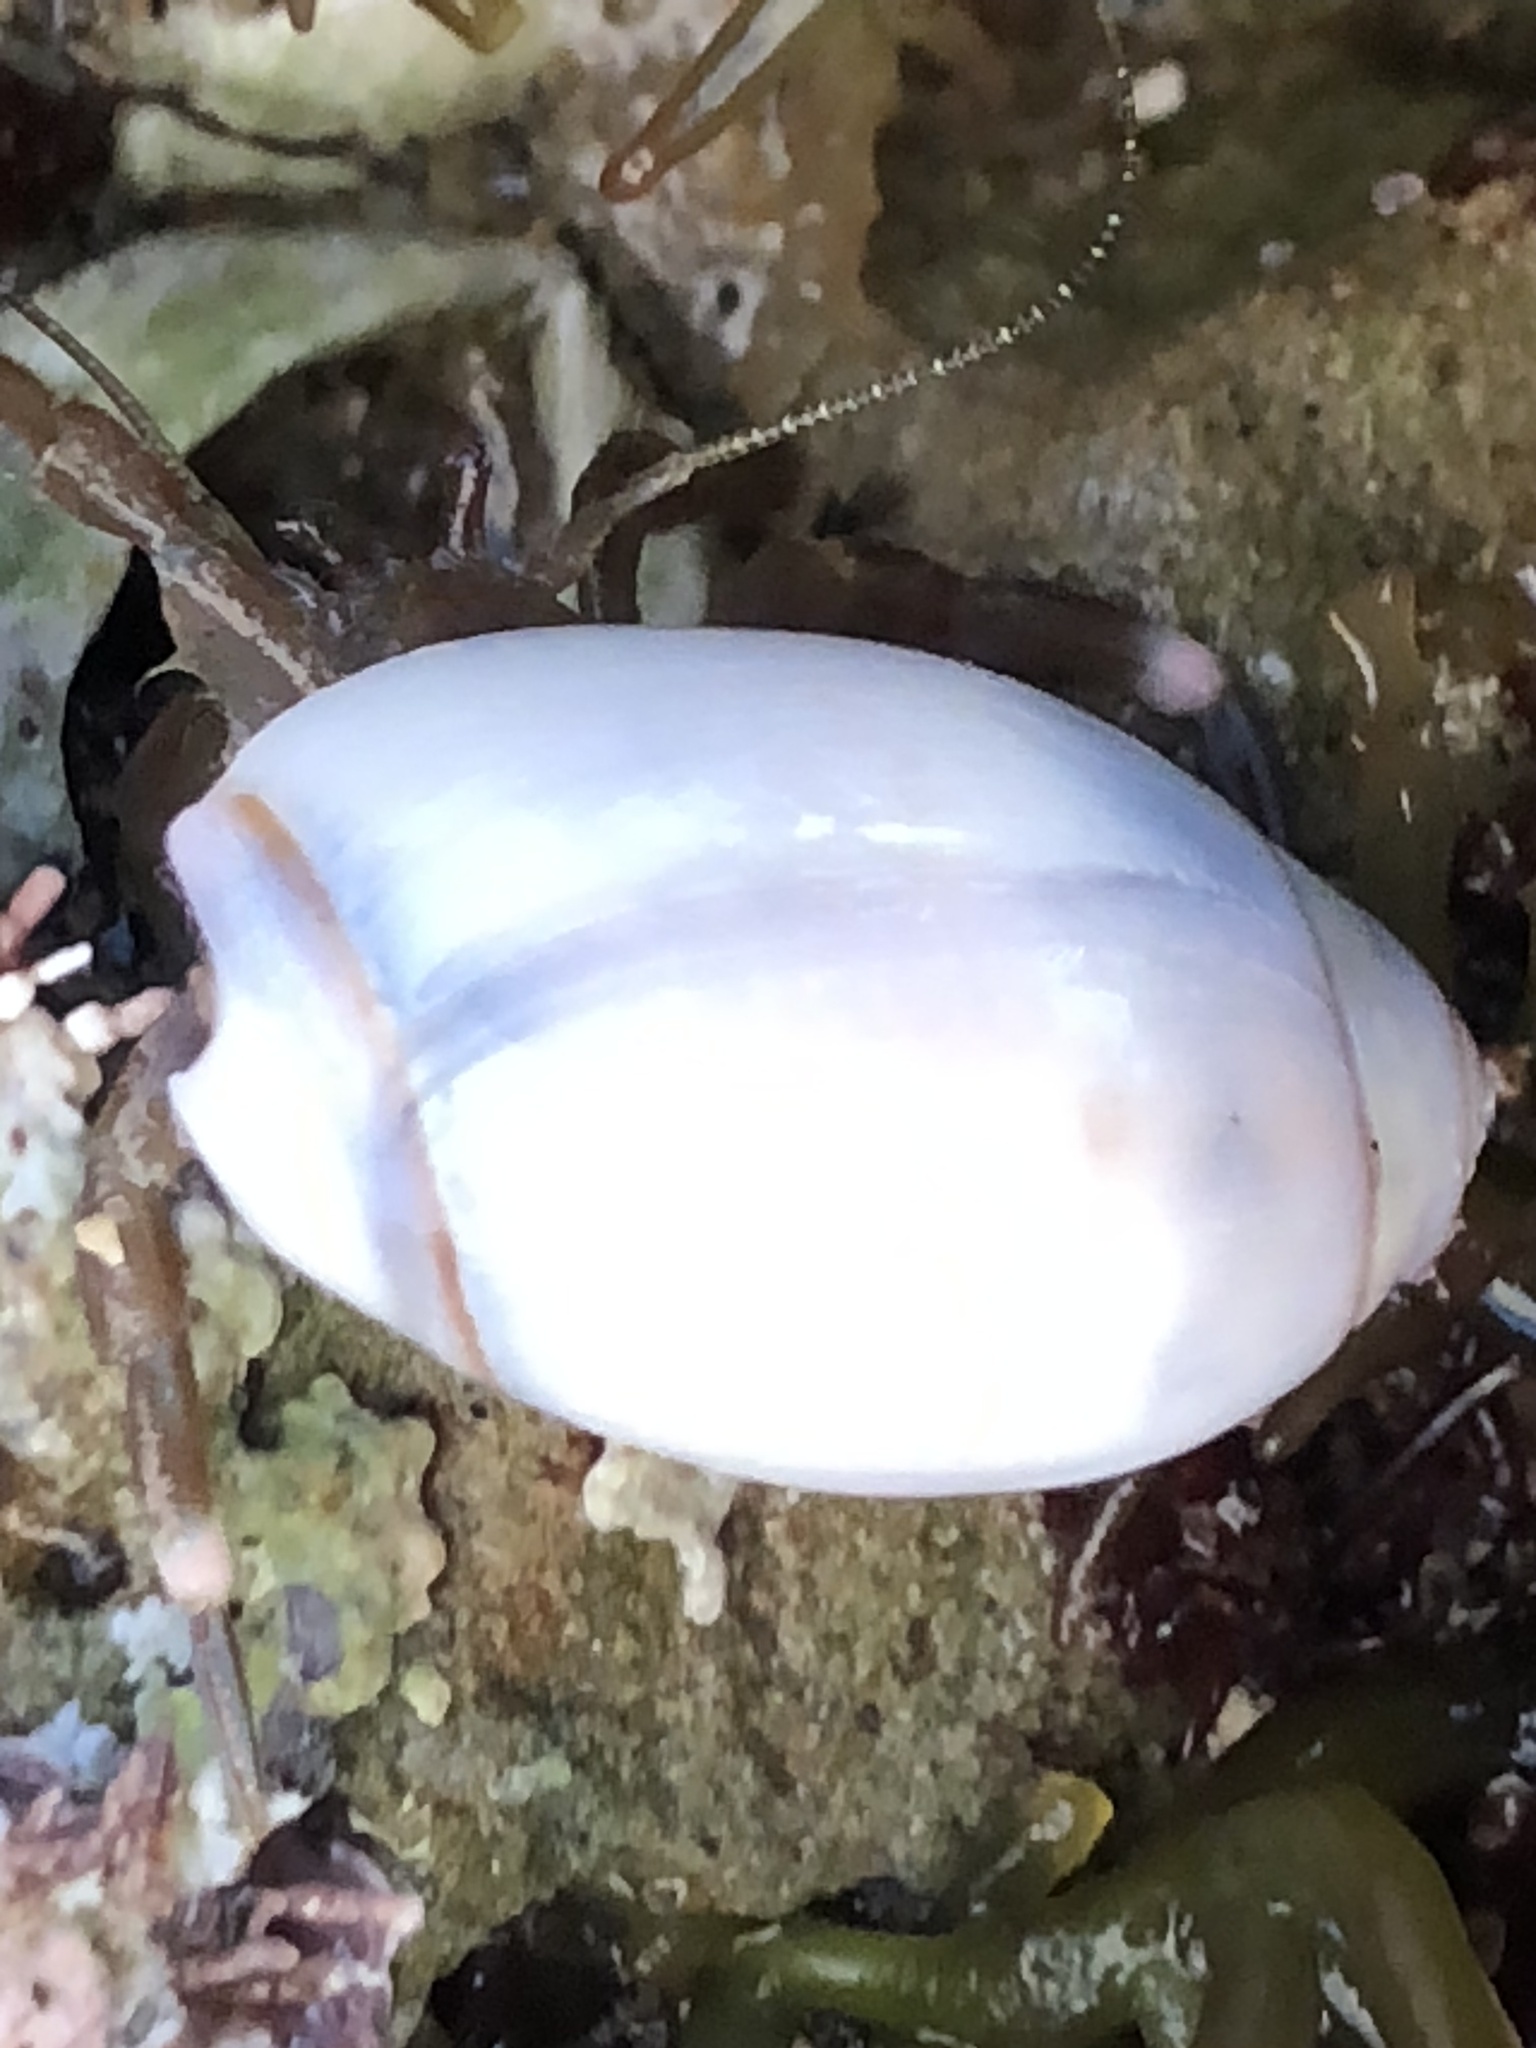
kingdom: Animalia
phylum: Mollusca
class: Gastropoda
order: Neogastropoda
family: Olividae
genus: Callianax
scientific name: Callianax biplicata
